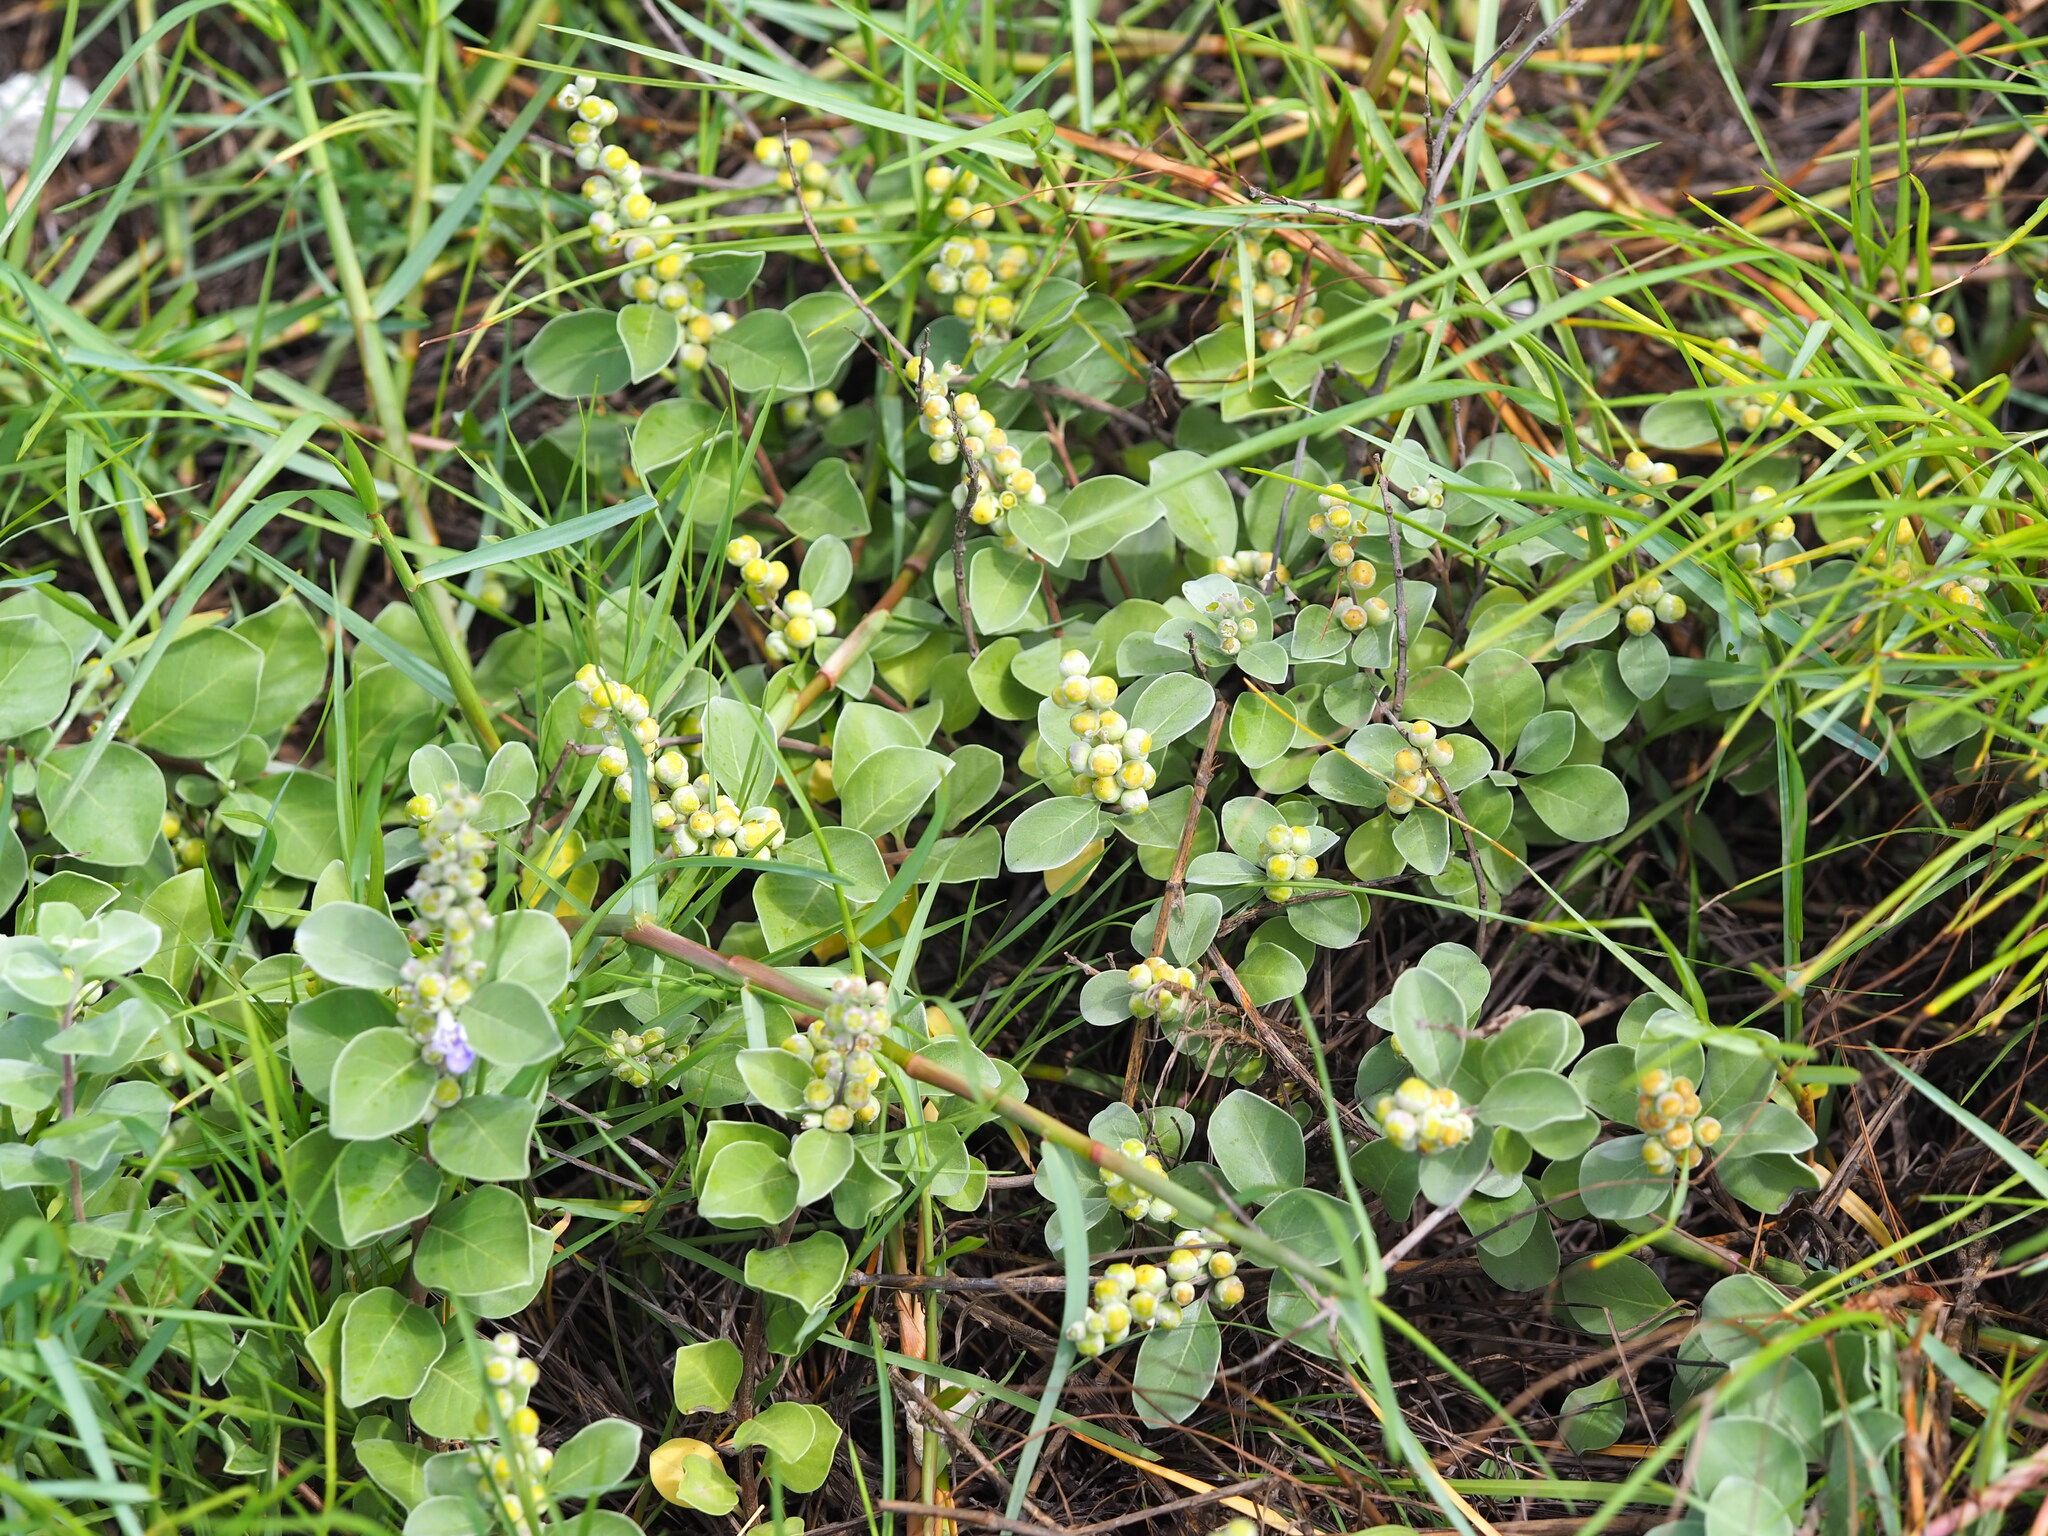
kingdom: Plantae
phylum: Tracheophyta
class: Magnoliopsida
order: Lamiales
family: Lamiaceae
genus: Vitex
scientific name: Vitex rotundifolia
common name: Beach vitex
